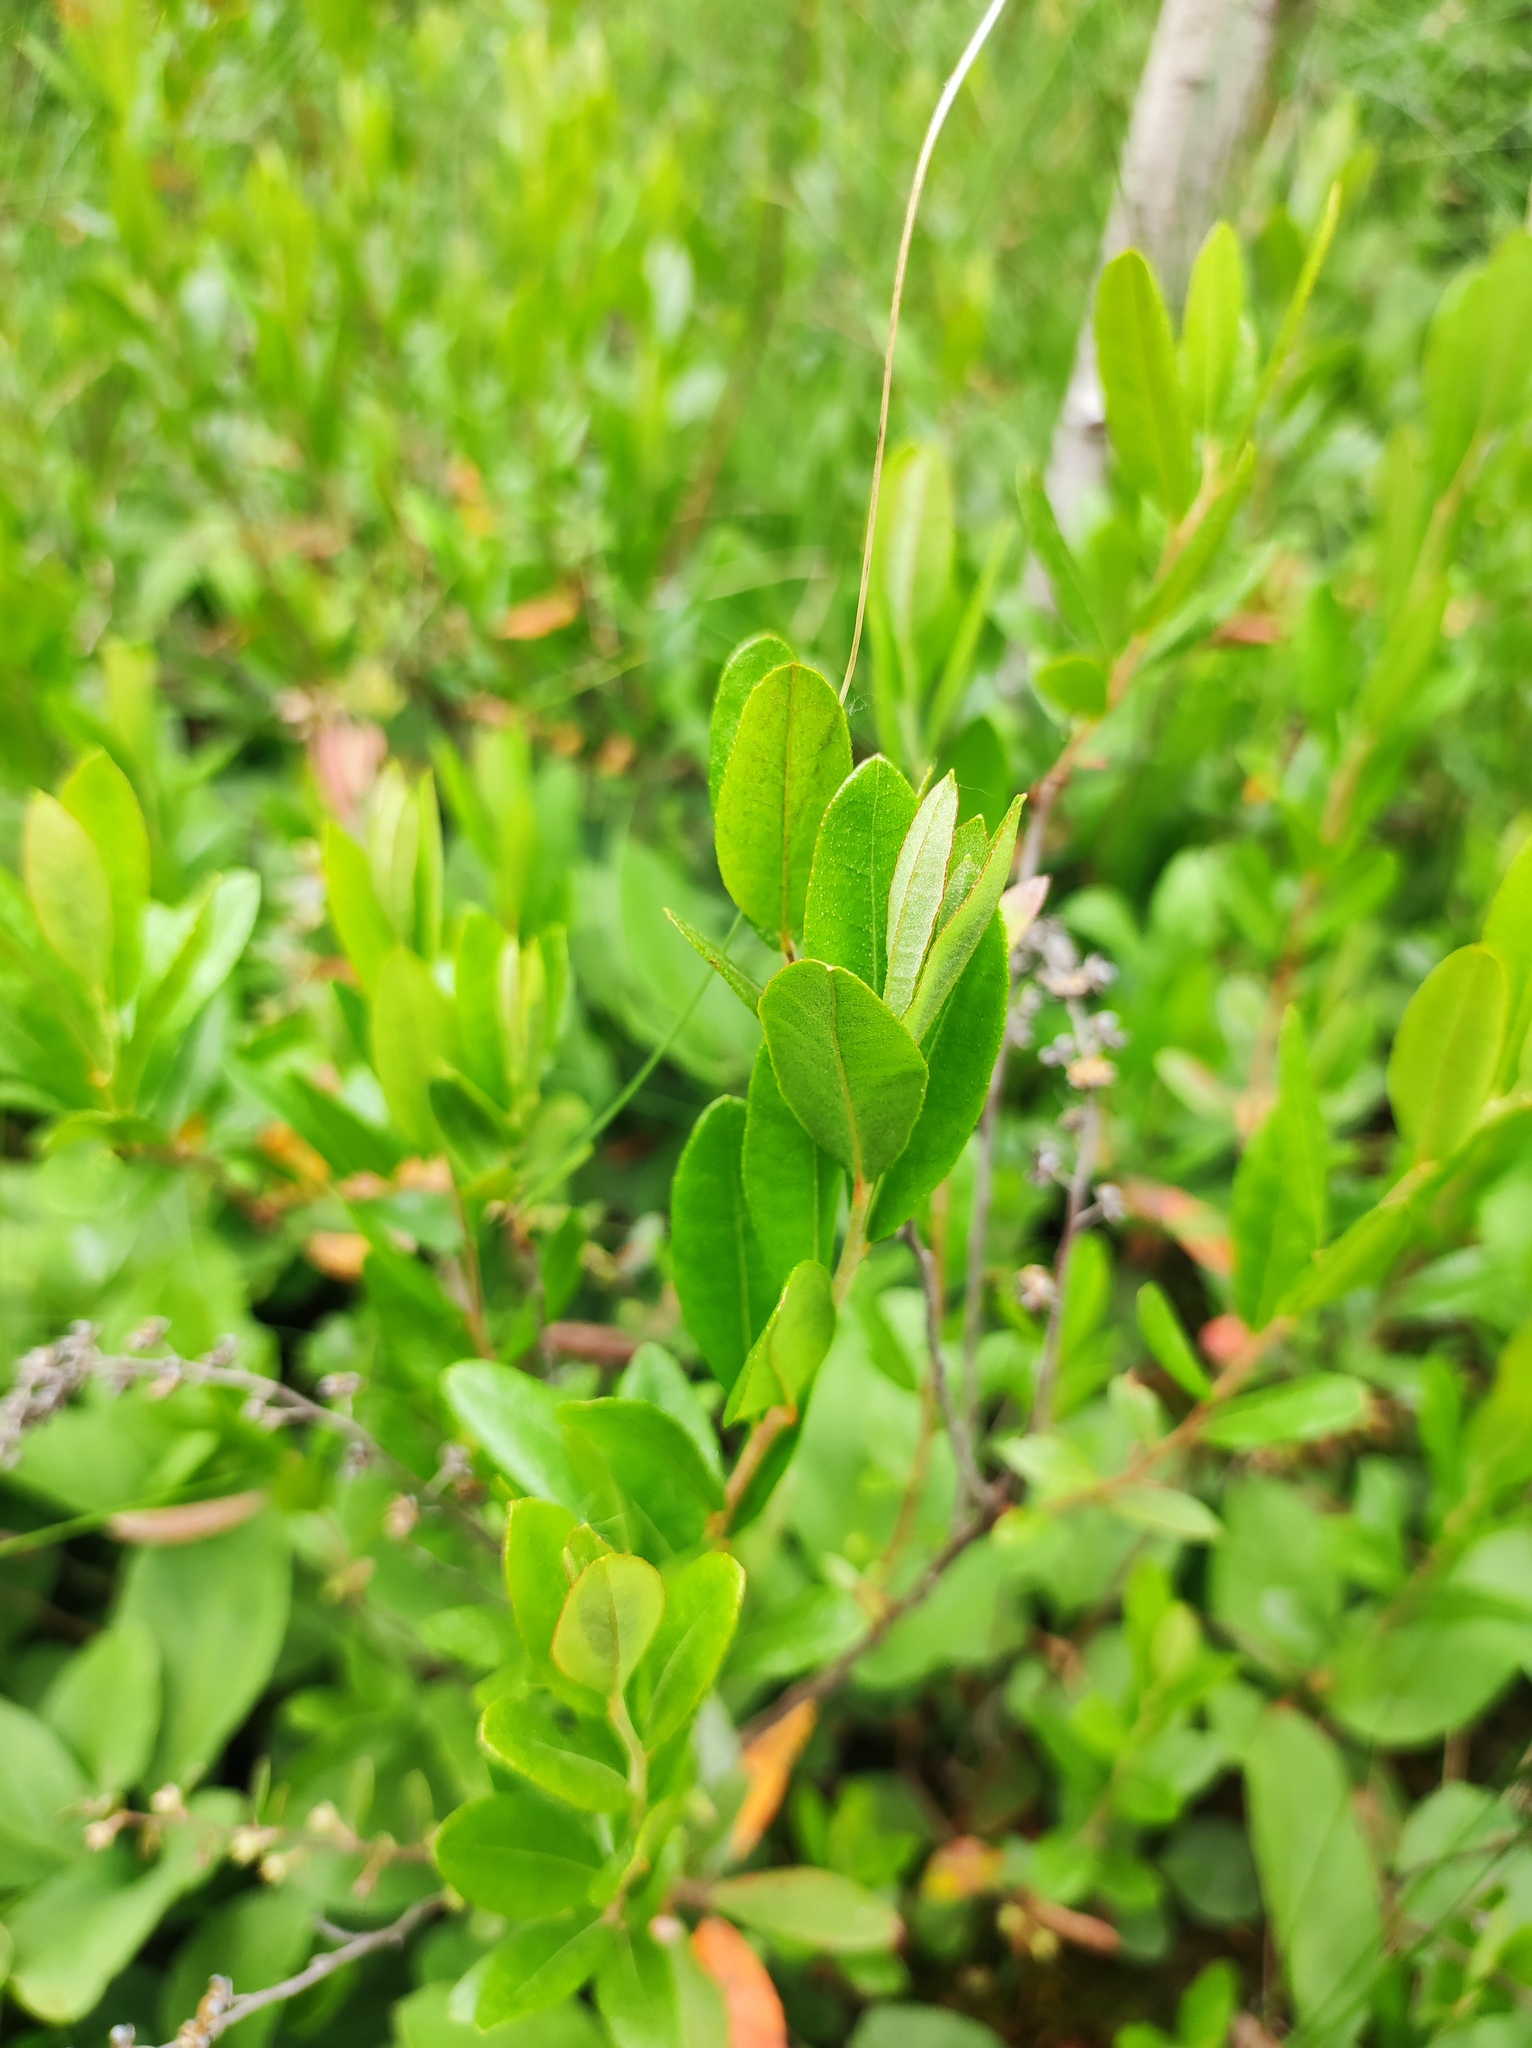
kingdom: Plantae
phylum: Tracheophyta
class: Magnoliopsida
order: Ericales
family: Ericaceae
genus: Chamaedaphne
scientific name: Chamaedaphne calyculata
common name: Leatherleaf
